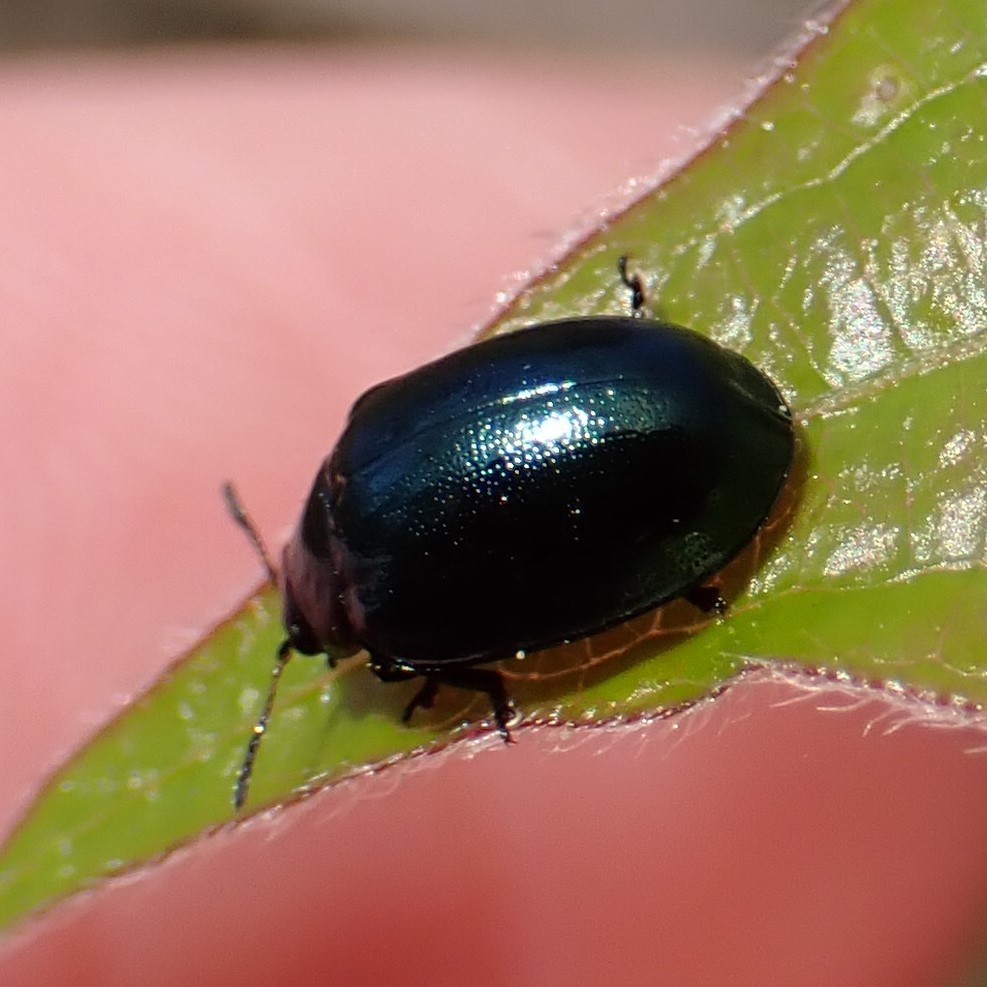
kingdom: Animalia
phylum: Arthropoda
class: Insecta
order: Coleoptera
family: Chrysomelidae
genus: Plagiodera
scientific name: Plagiodera versicolora
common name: Imported willow leaf beetle
